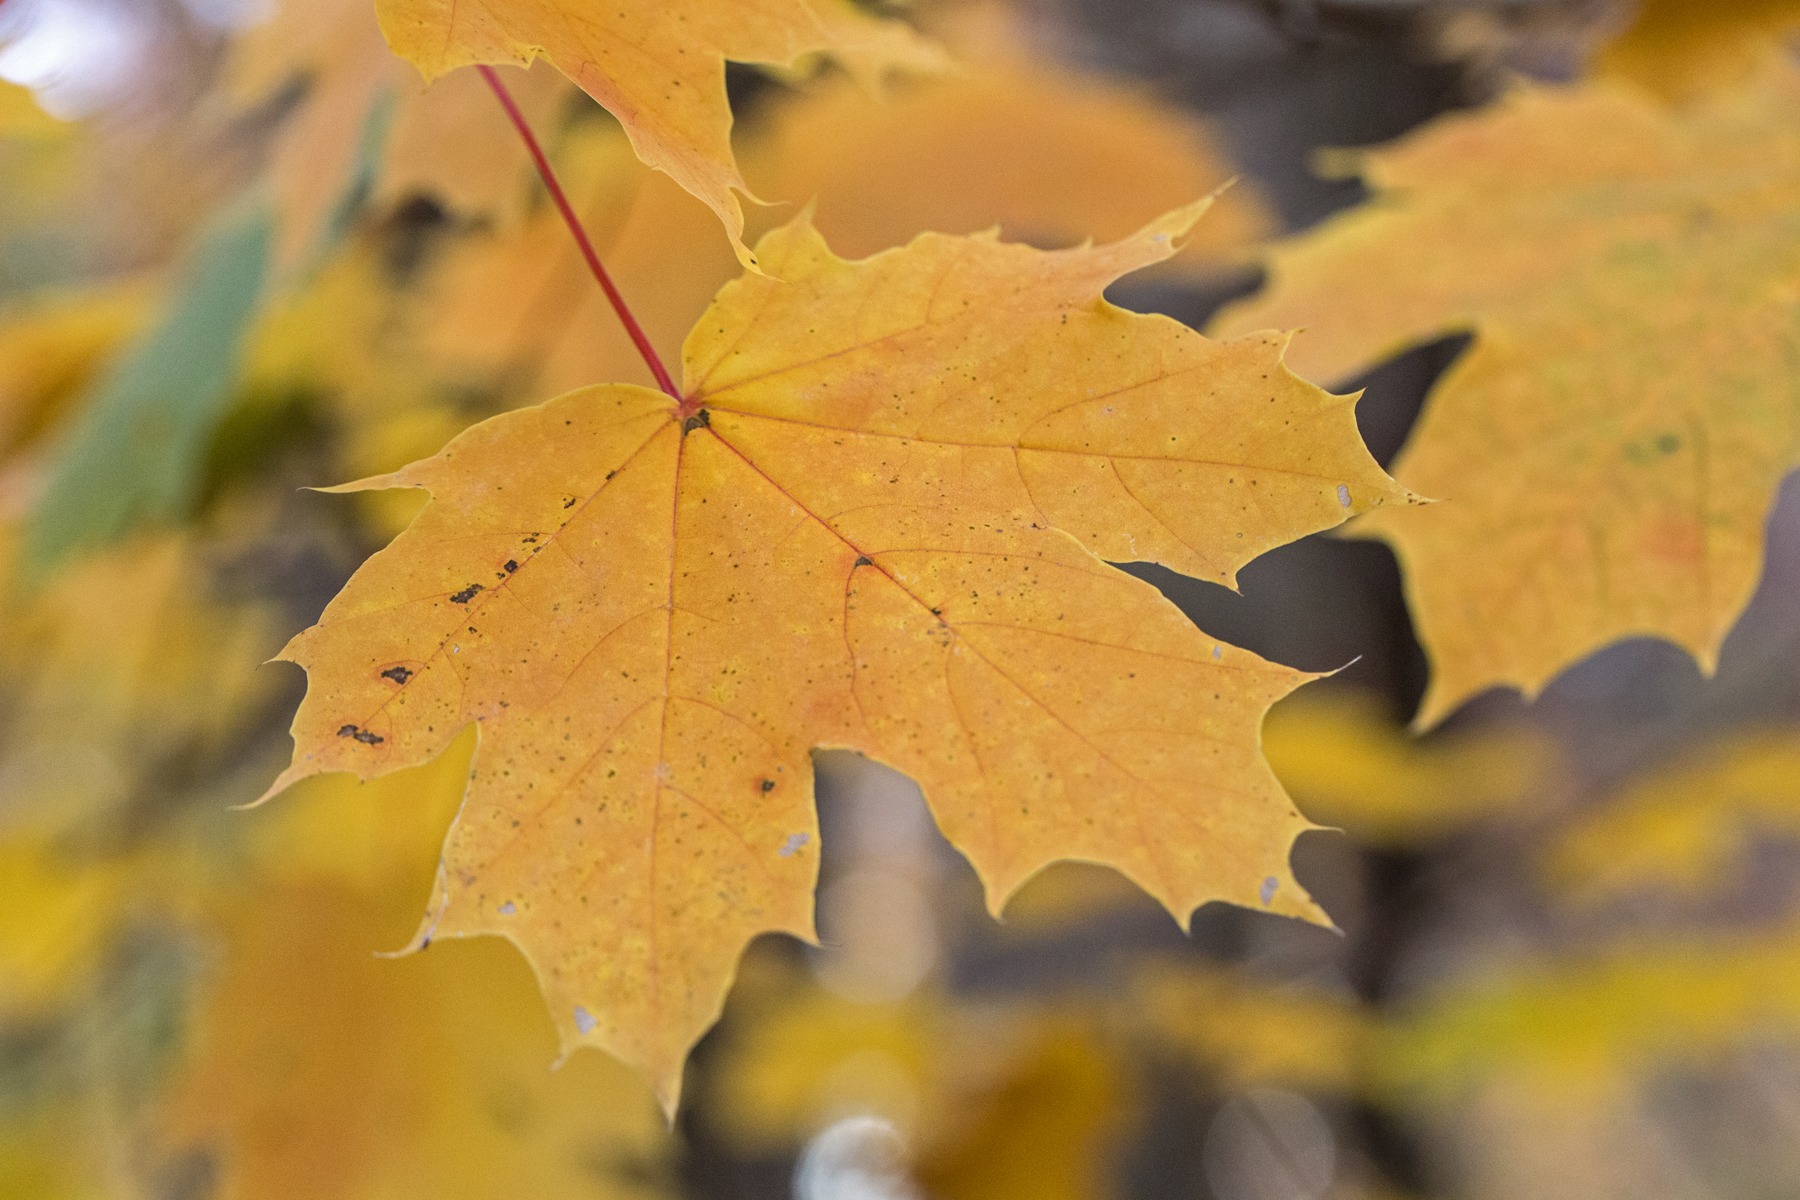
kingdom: Plantae
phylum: Tracheophyta
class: Magnoliopsida
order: Sapindales
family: Sapindaceae
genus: Acer
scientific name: Acer platanoides
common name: Norway maple
